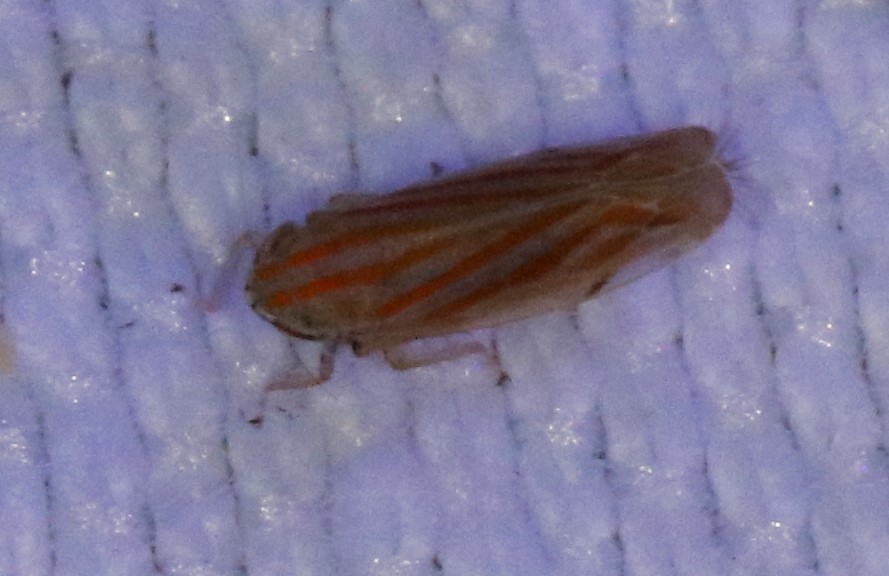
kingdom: Animalia
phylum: Arthropoda
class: Insecta
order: Hemiptera
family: Cicadellidae
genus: Deltanus
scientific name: Deltanus texanus
